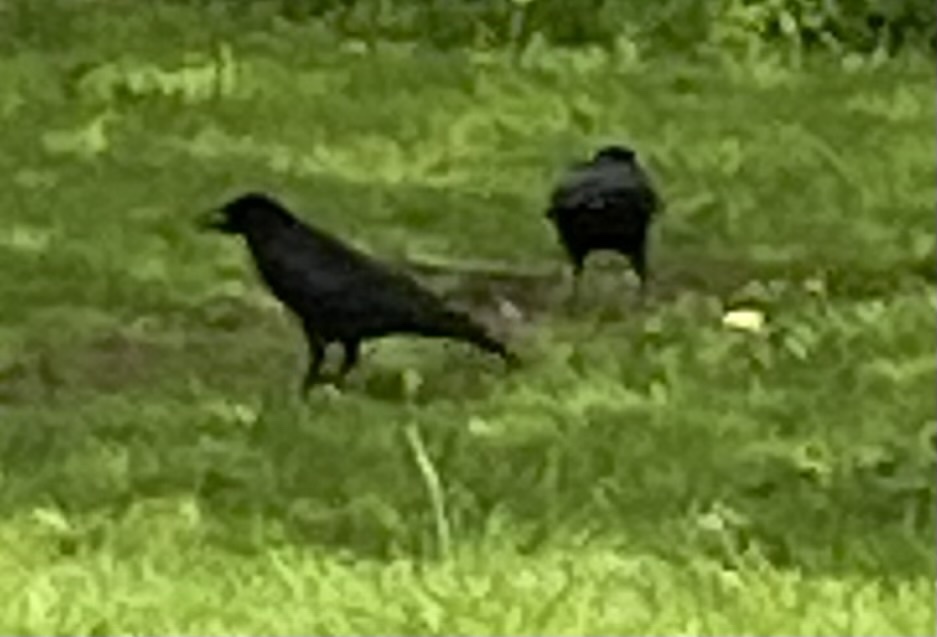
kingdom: Animalia
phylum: Chordata
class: Aves
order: Passeriformes
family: Corvidae
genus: Corvus
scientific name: Corvus corone
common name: Carrion crow
